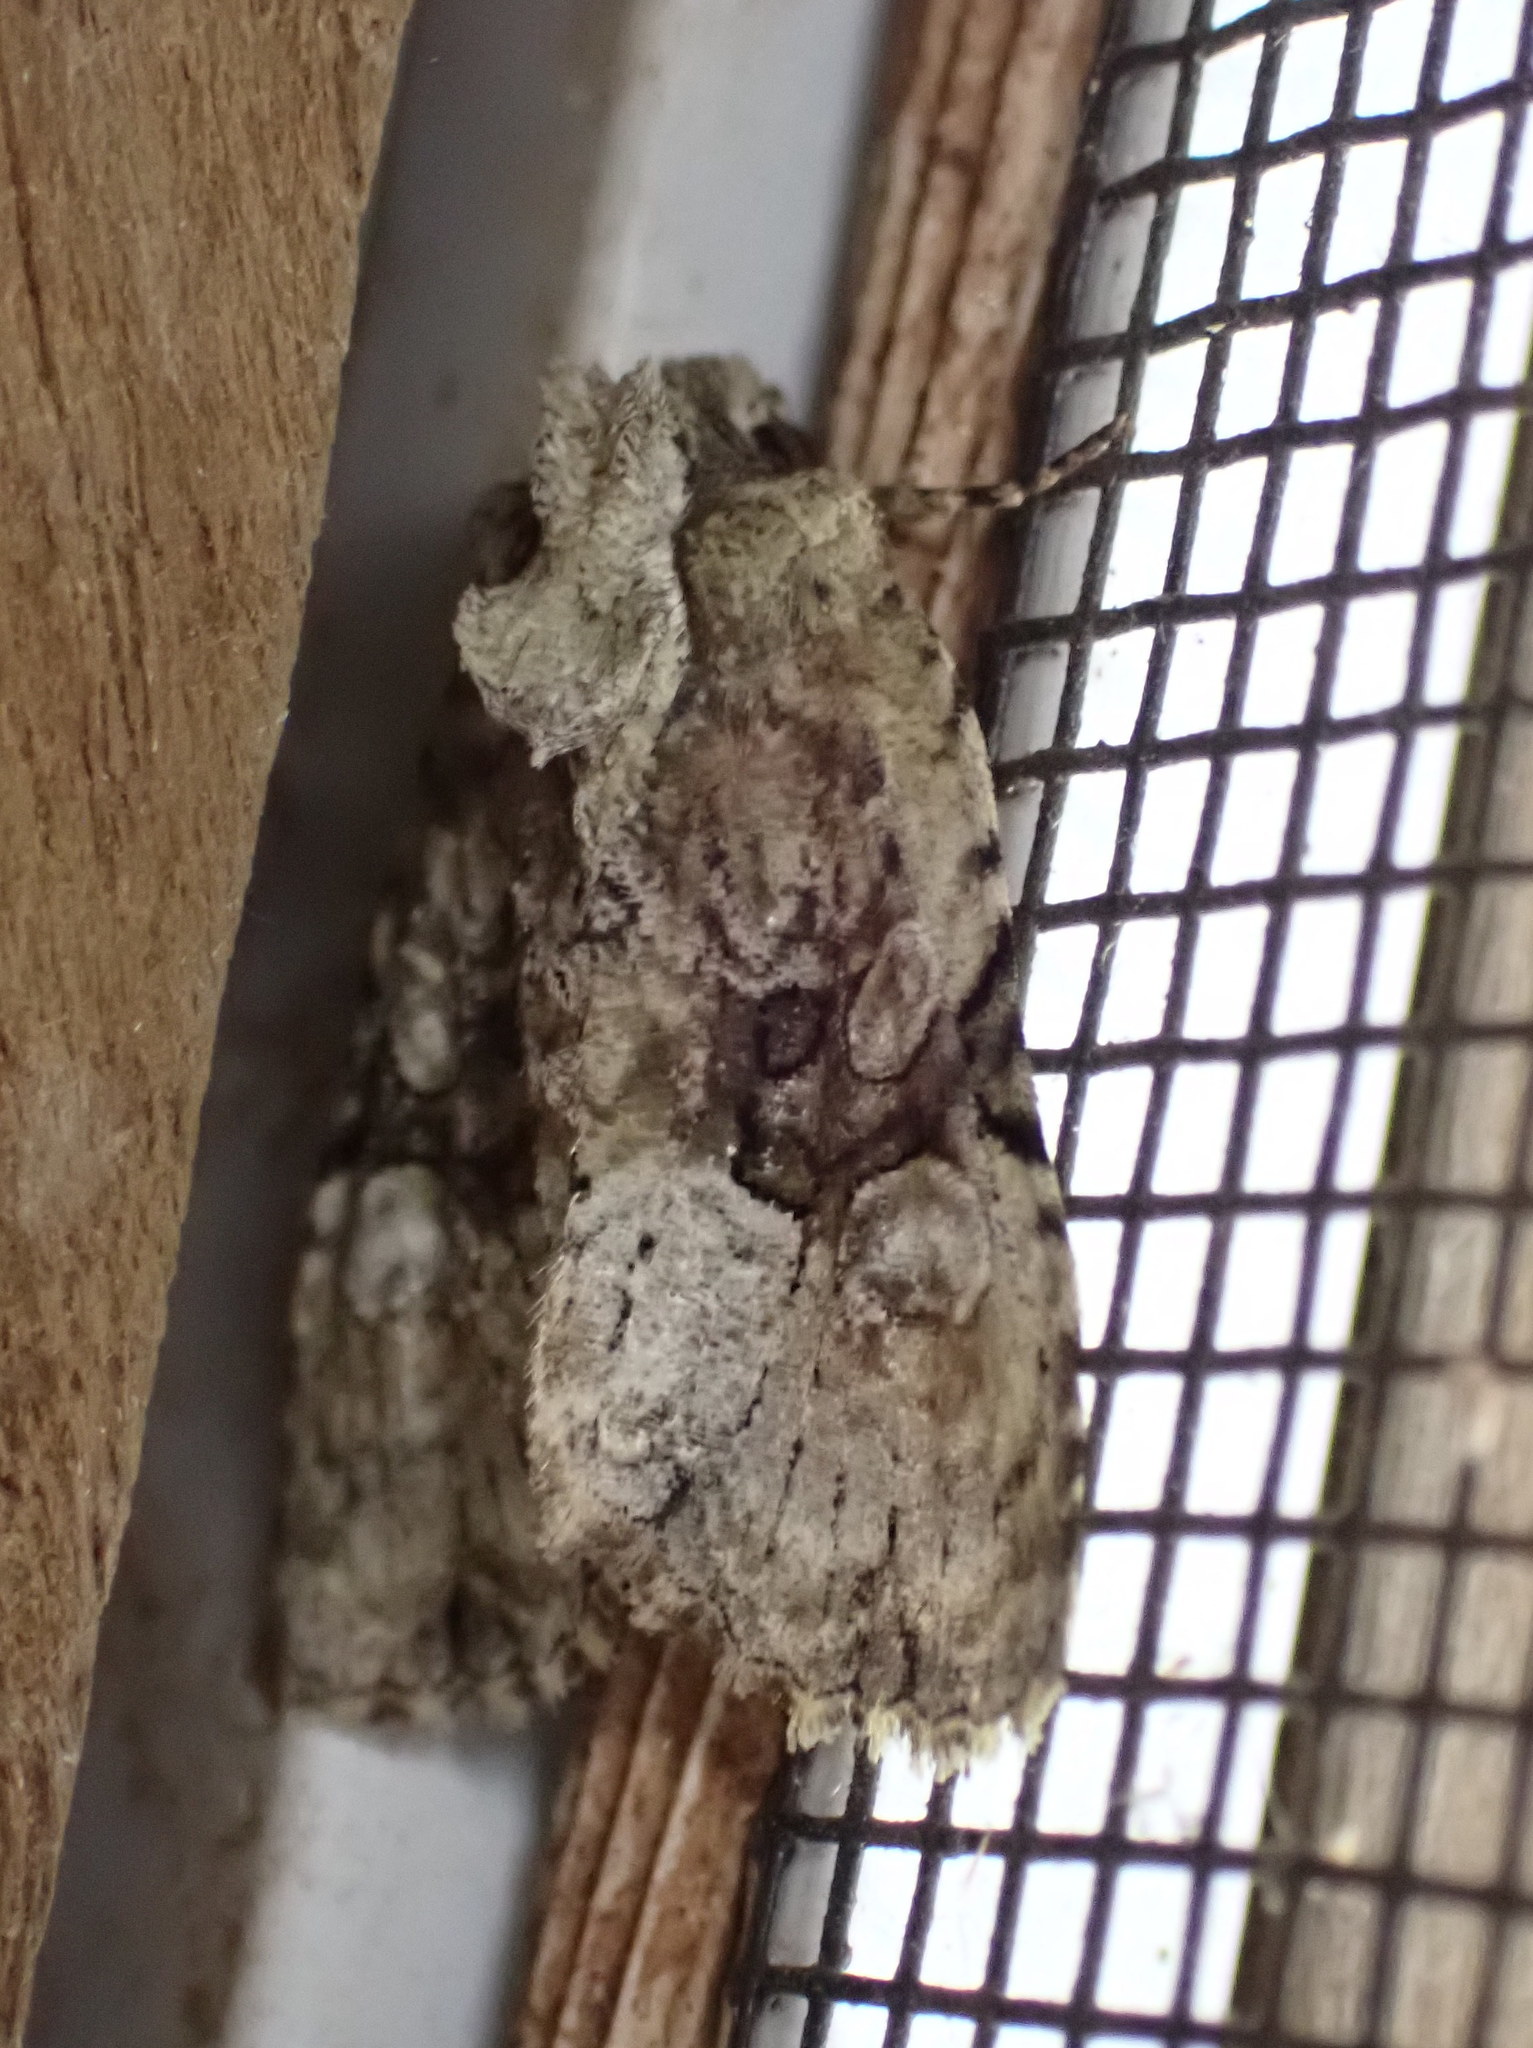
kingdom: Animalia
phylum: Arthropoda
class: Insecta
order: Lepidoptera
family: Noctuidae
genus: Oligia
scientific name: Oligia modica
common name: Black-banded brocade
